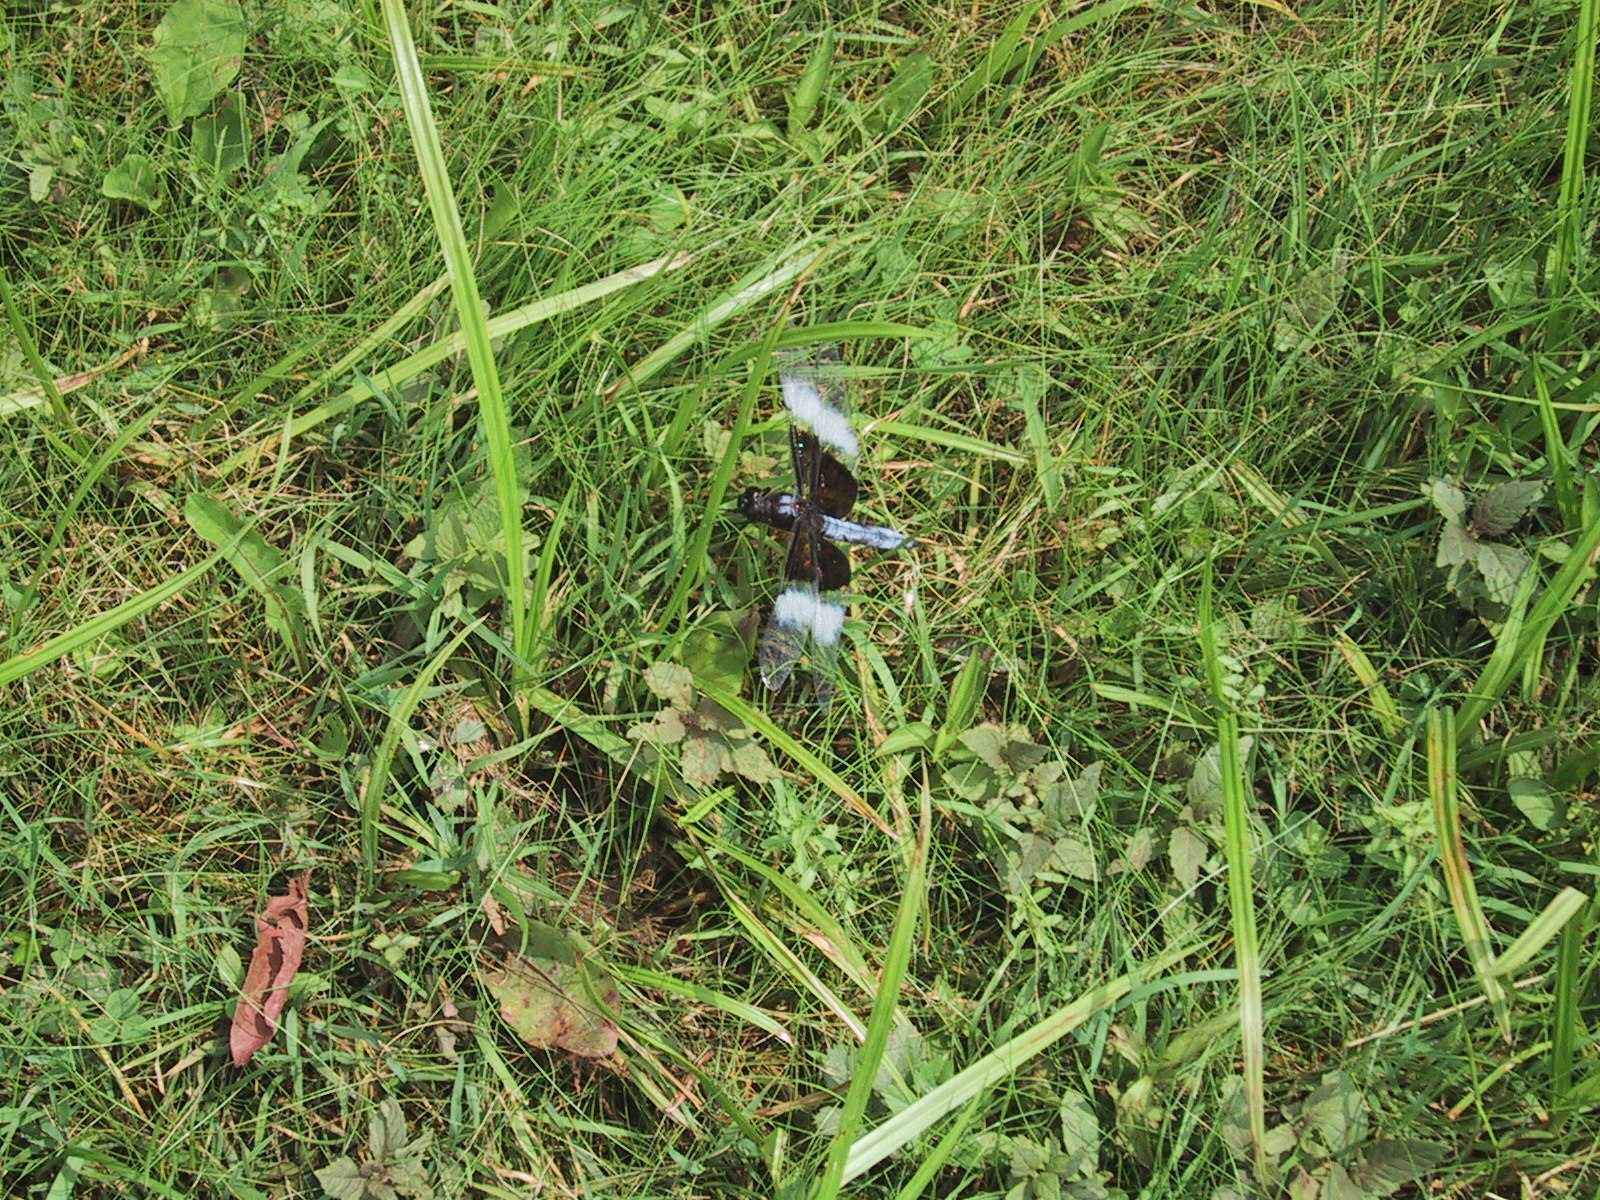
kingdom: Animalia
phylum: Arthropoda
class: Insecta
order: Odonata
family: Libellulidae
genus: Libellula
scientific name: Libellula luctuosa
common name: Widow skimmer
